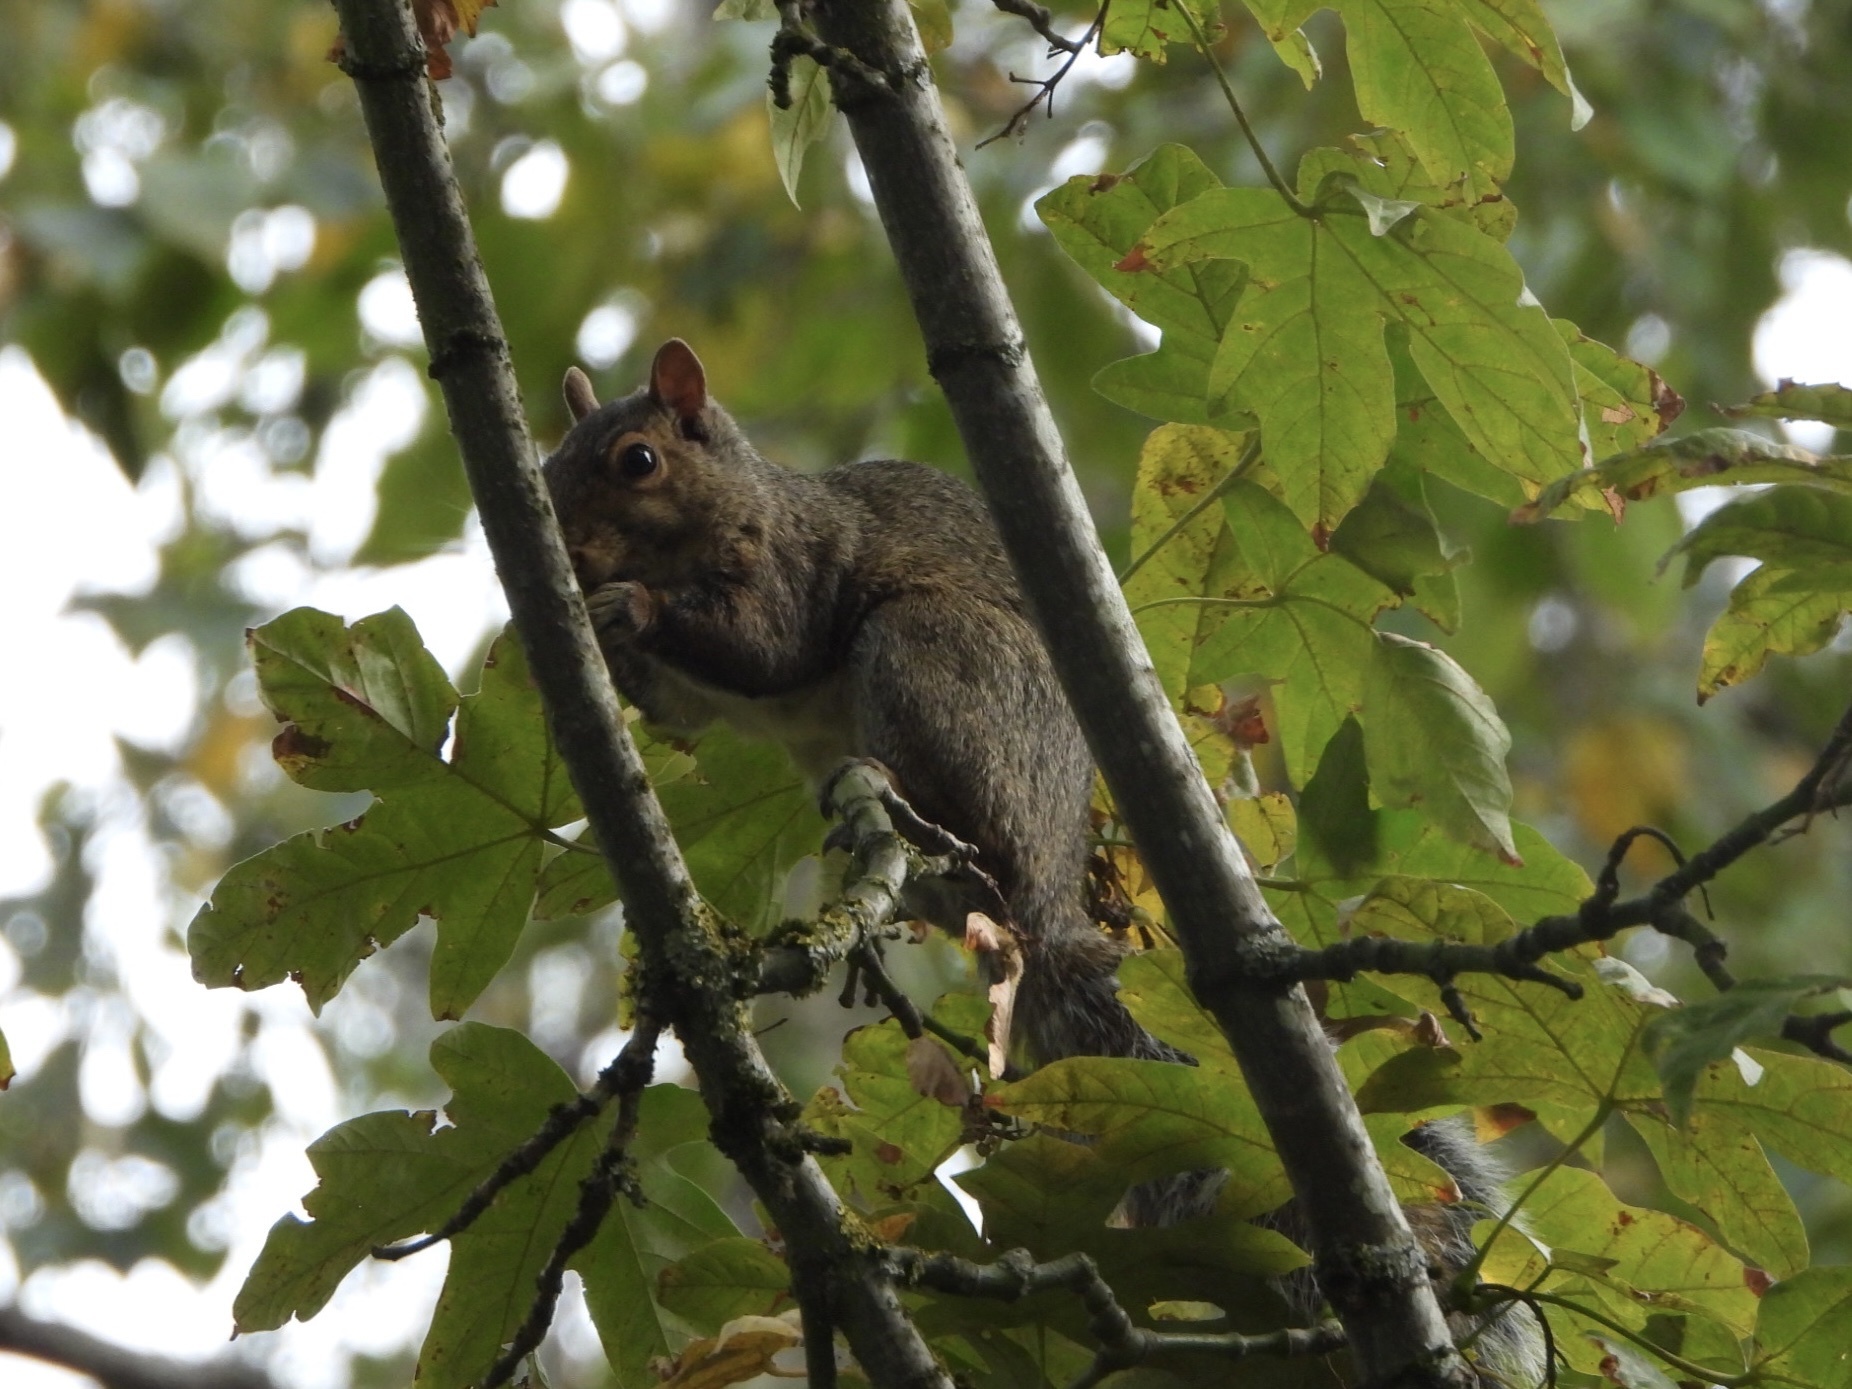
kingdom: Animalia
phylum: Chordata
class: Mammalia
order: Rodentia
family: Sciuridae
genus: Sciurus
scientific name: Sciurus carolinensis
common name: Eastern gray squirrel
